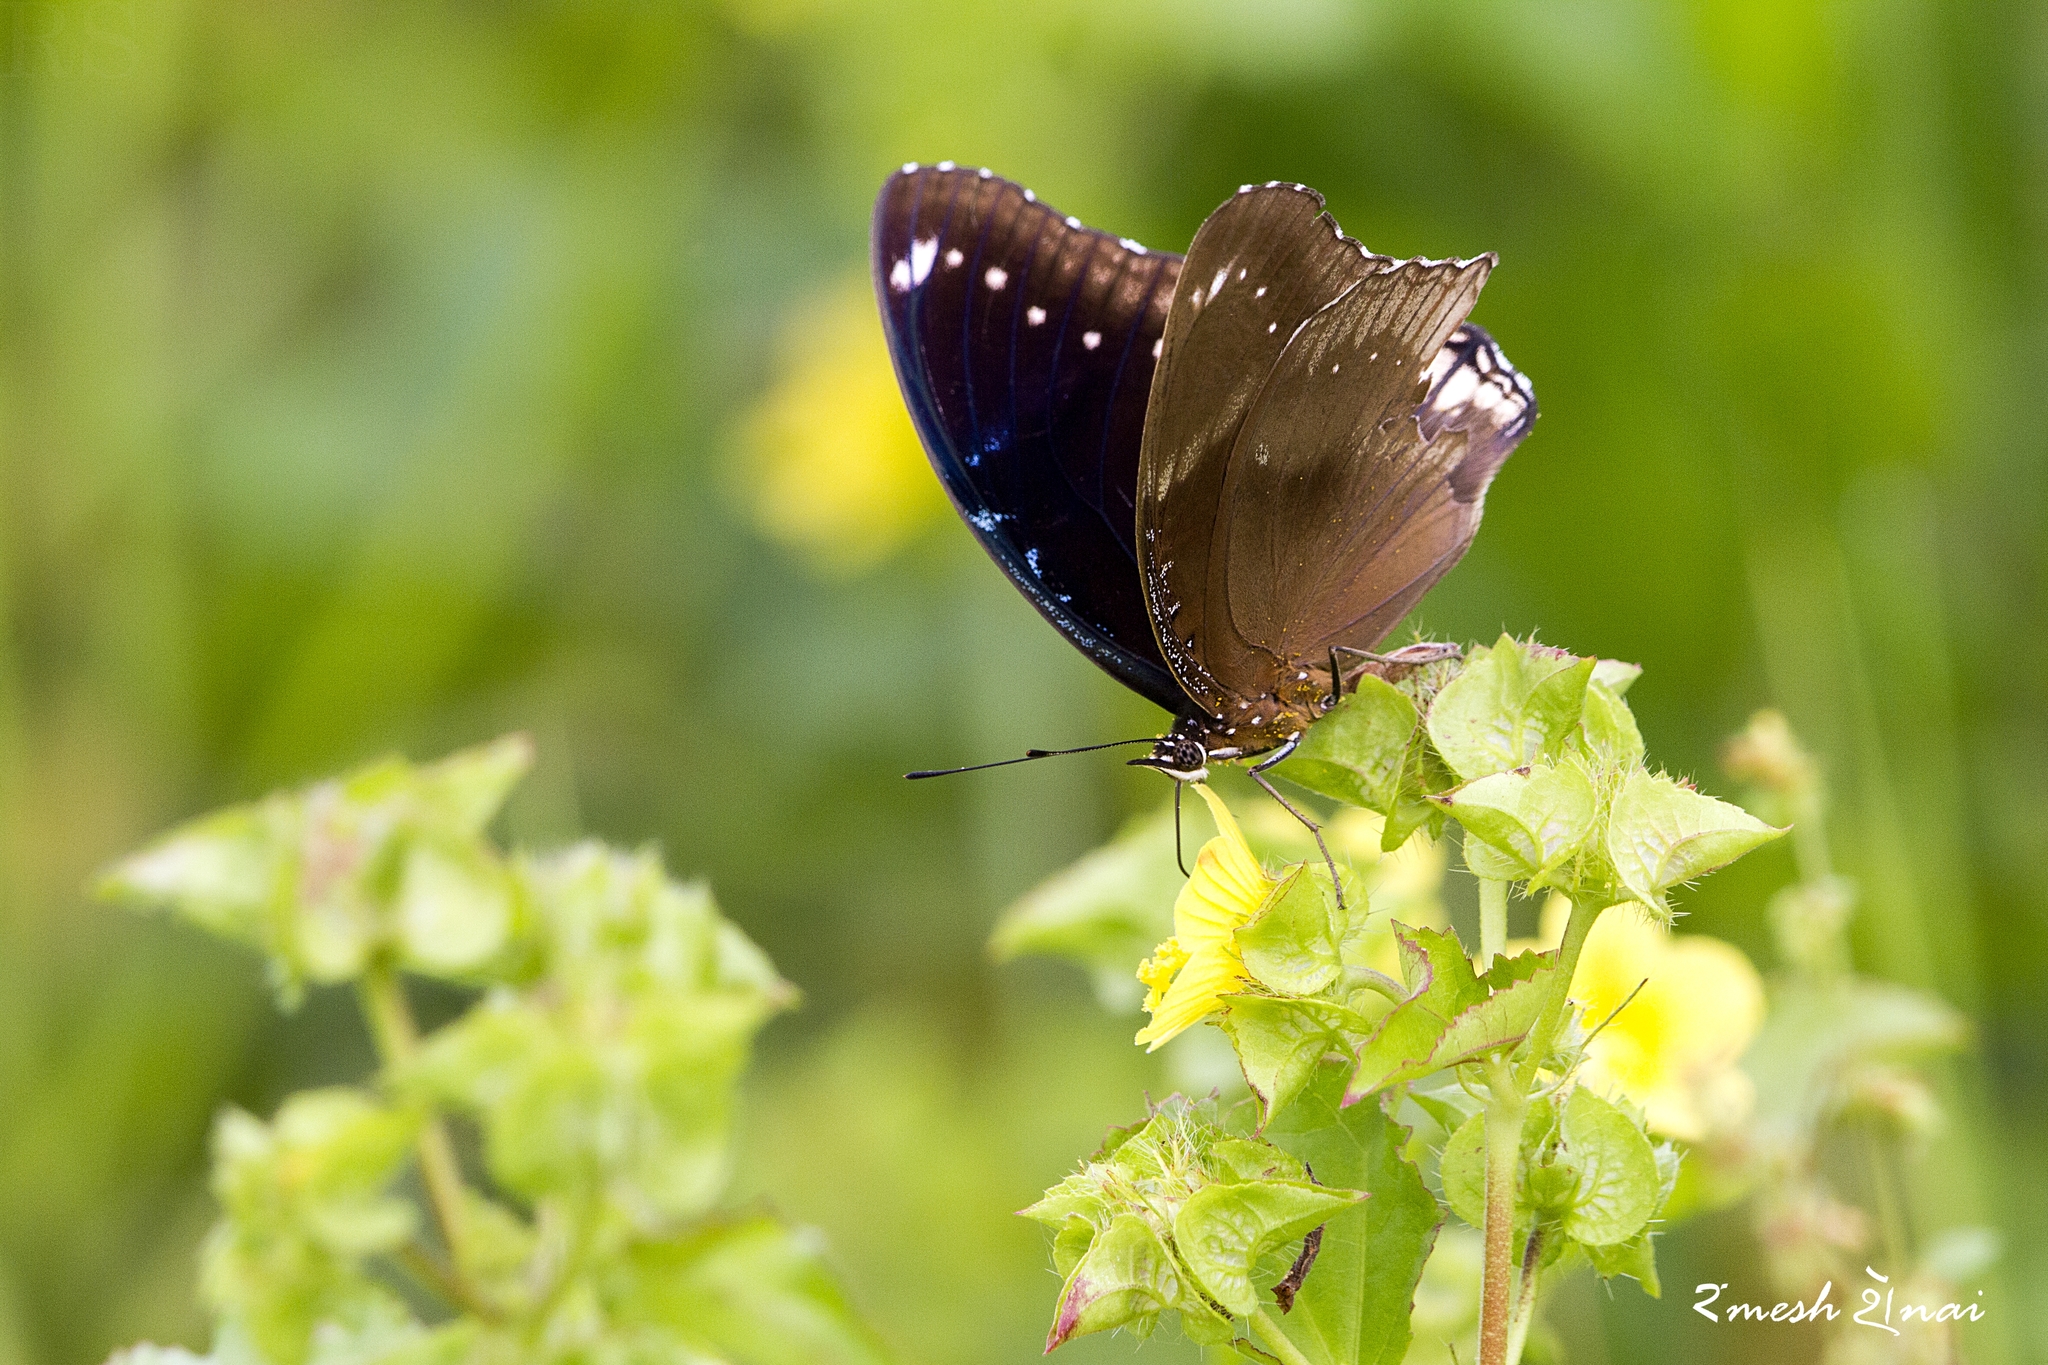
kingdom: Animalia
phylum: Arthropoda
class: Insecta
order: Lepidoptera
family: Nymphalidae
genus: Hypolimnas
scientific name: Hypolimnas bolina
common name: Great eggfly
